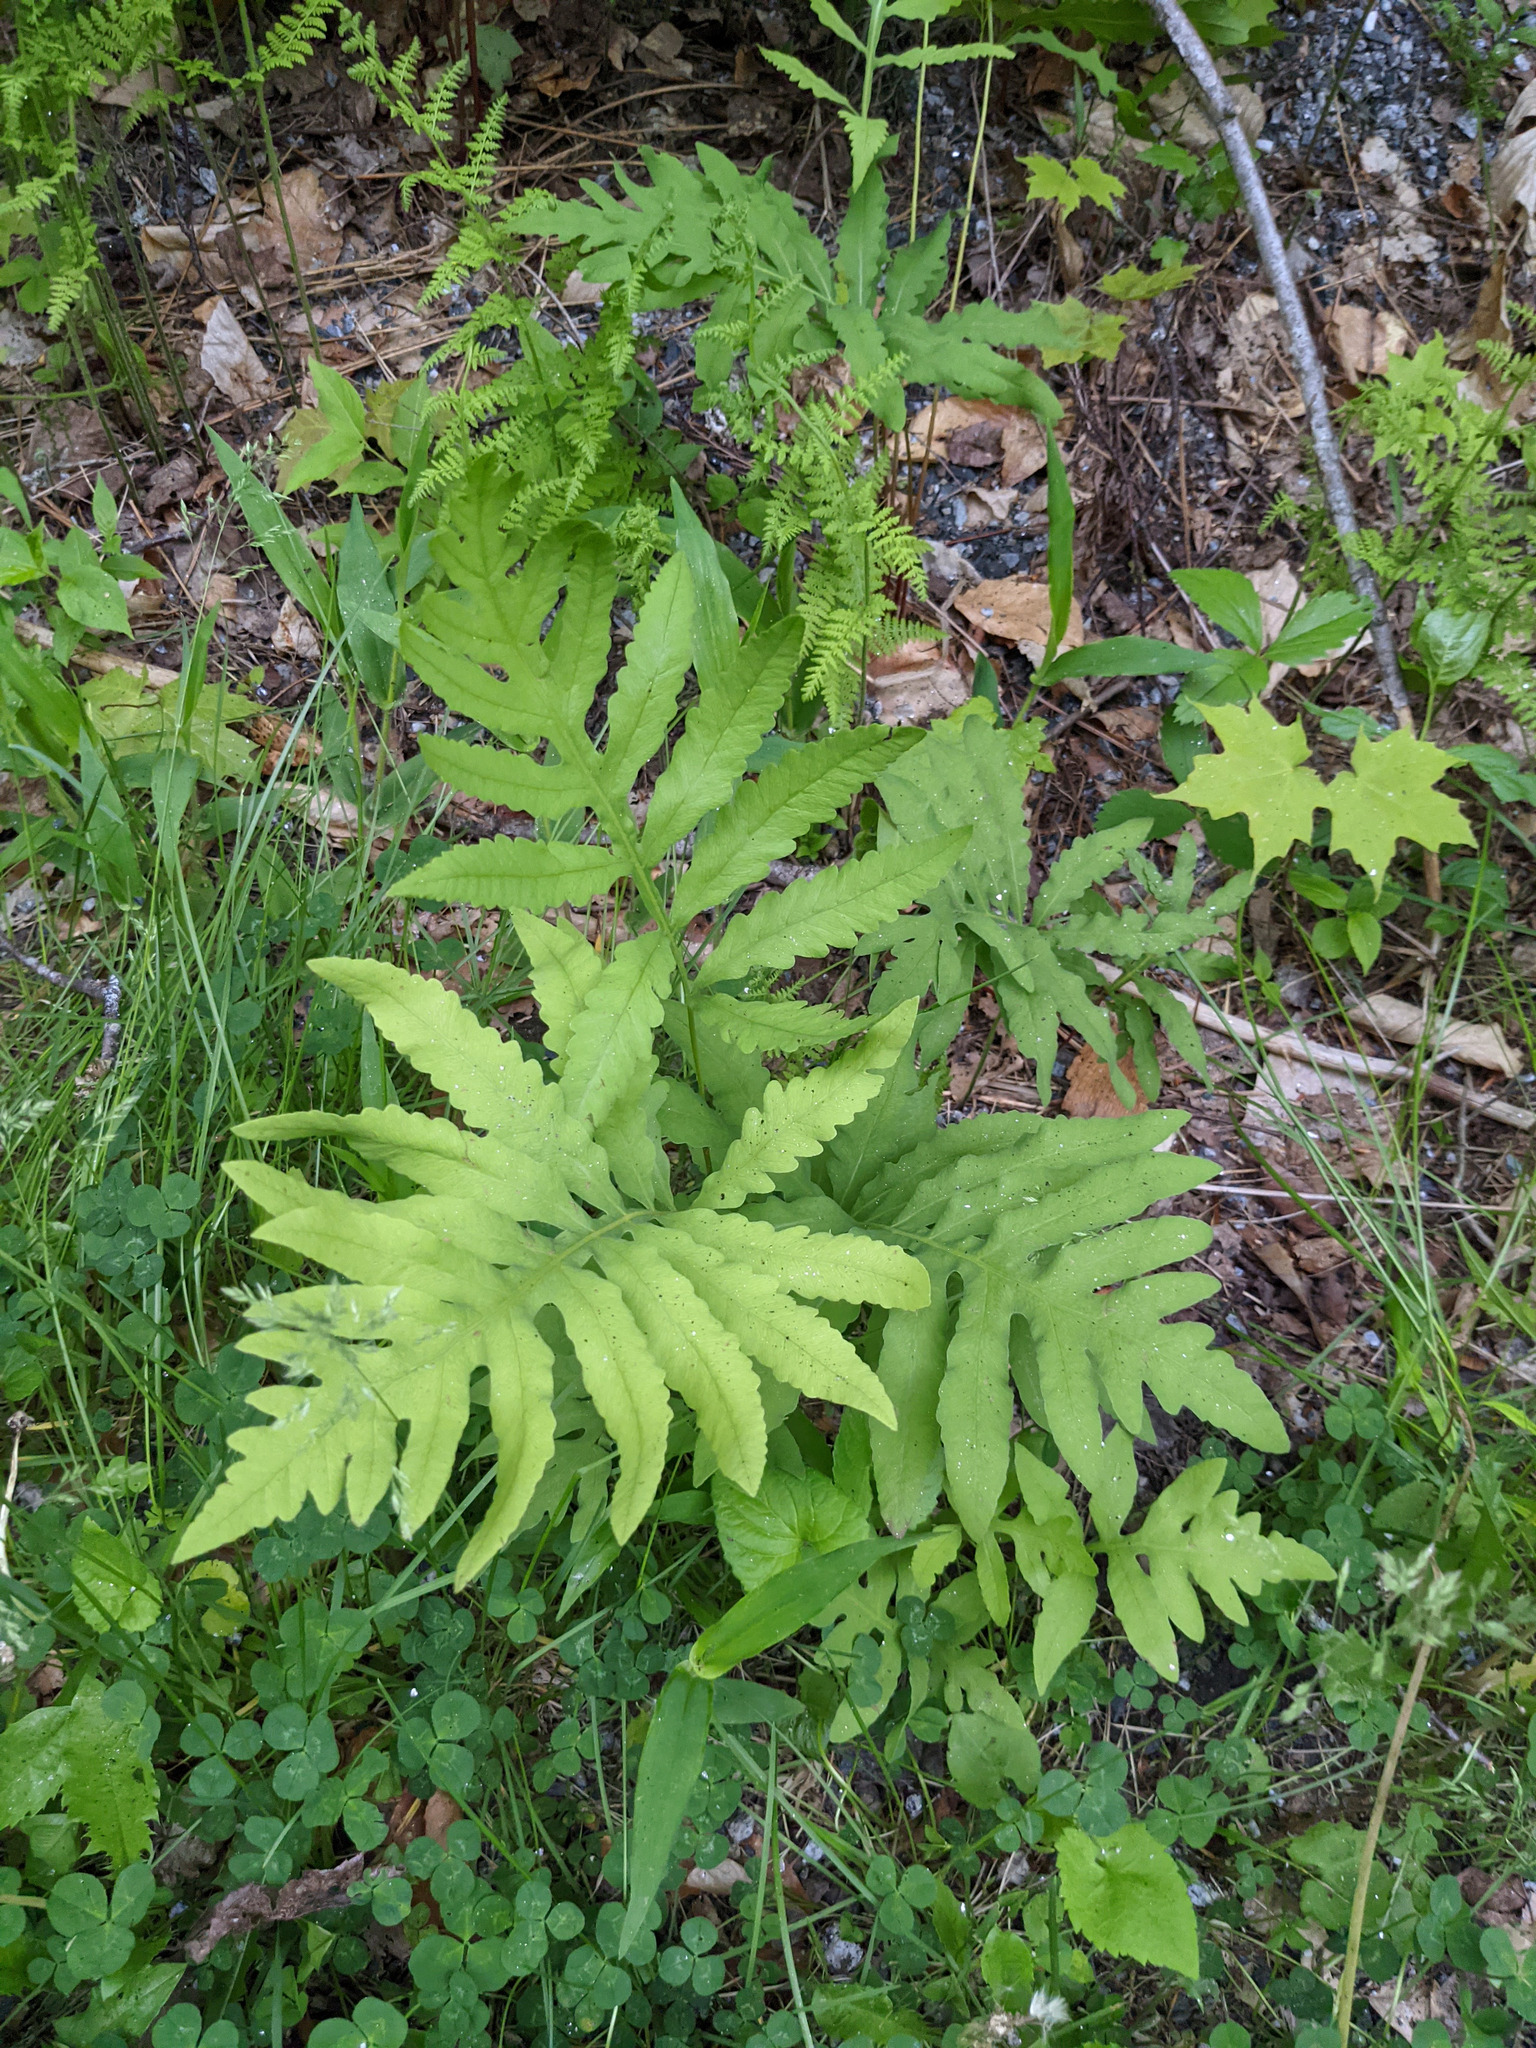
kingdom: Plantae
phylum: Tracheophyta
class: Polypodiopsida
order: Polypodiales
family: Onocleaceae
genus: Onoclea
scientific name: Onoclea sensibilis
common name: Sensitive fern
